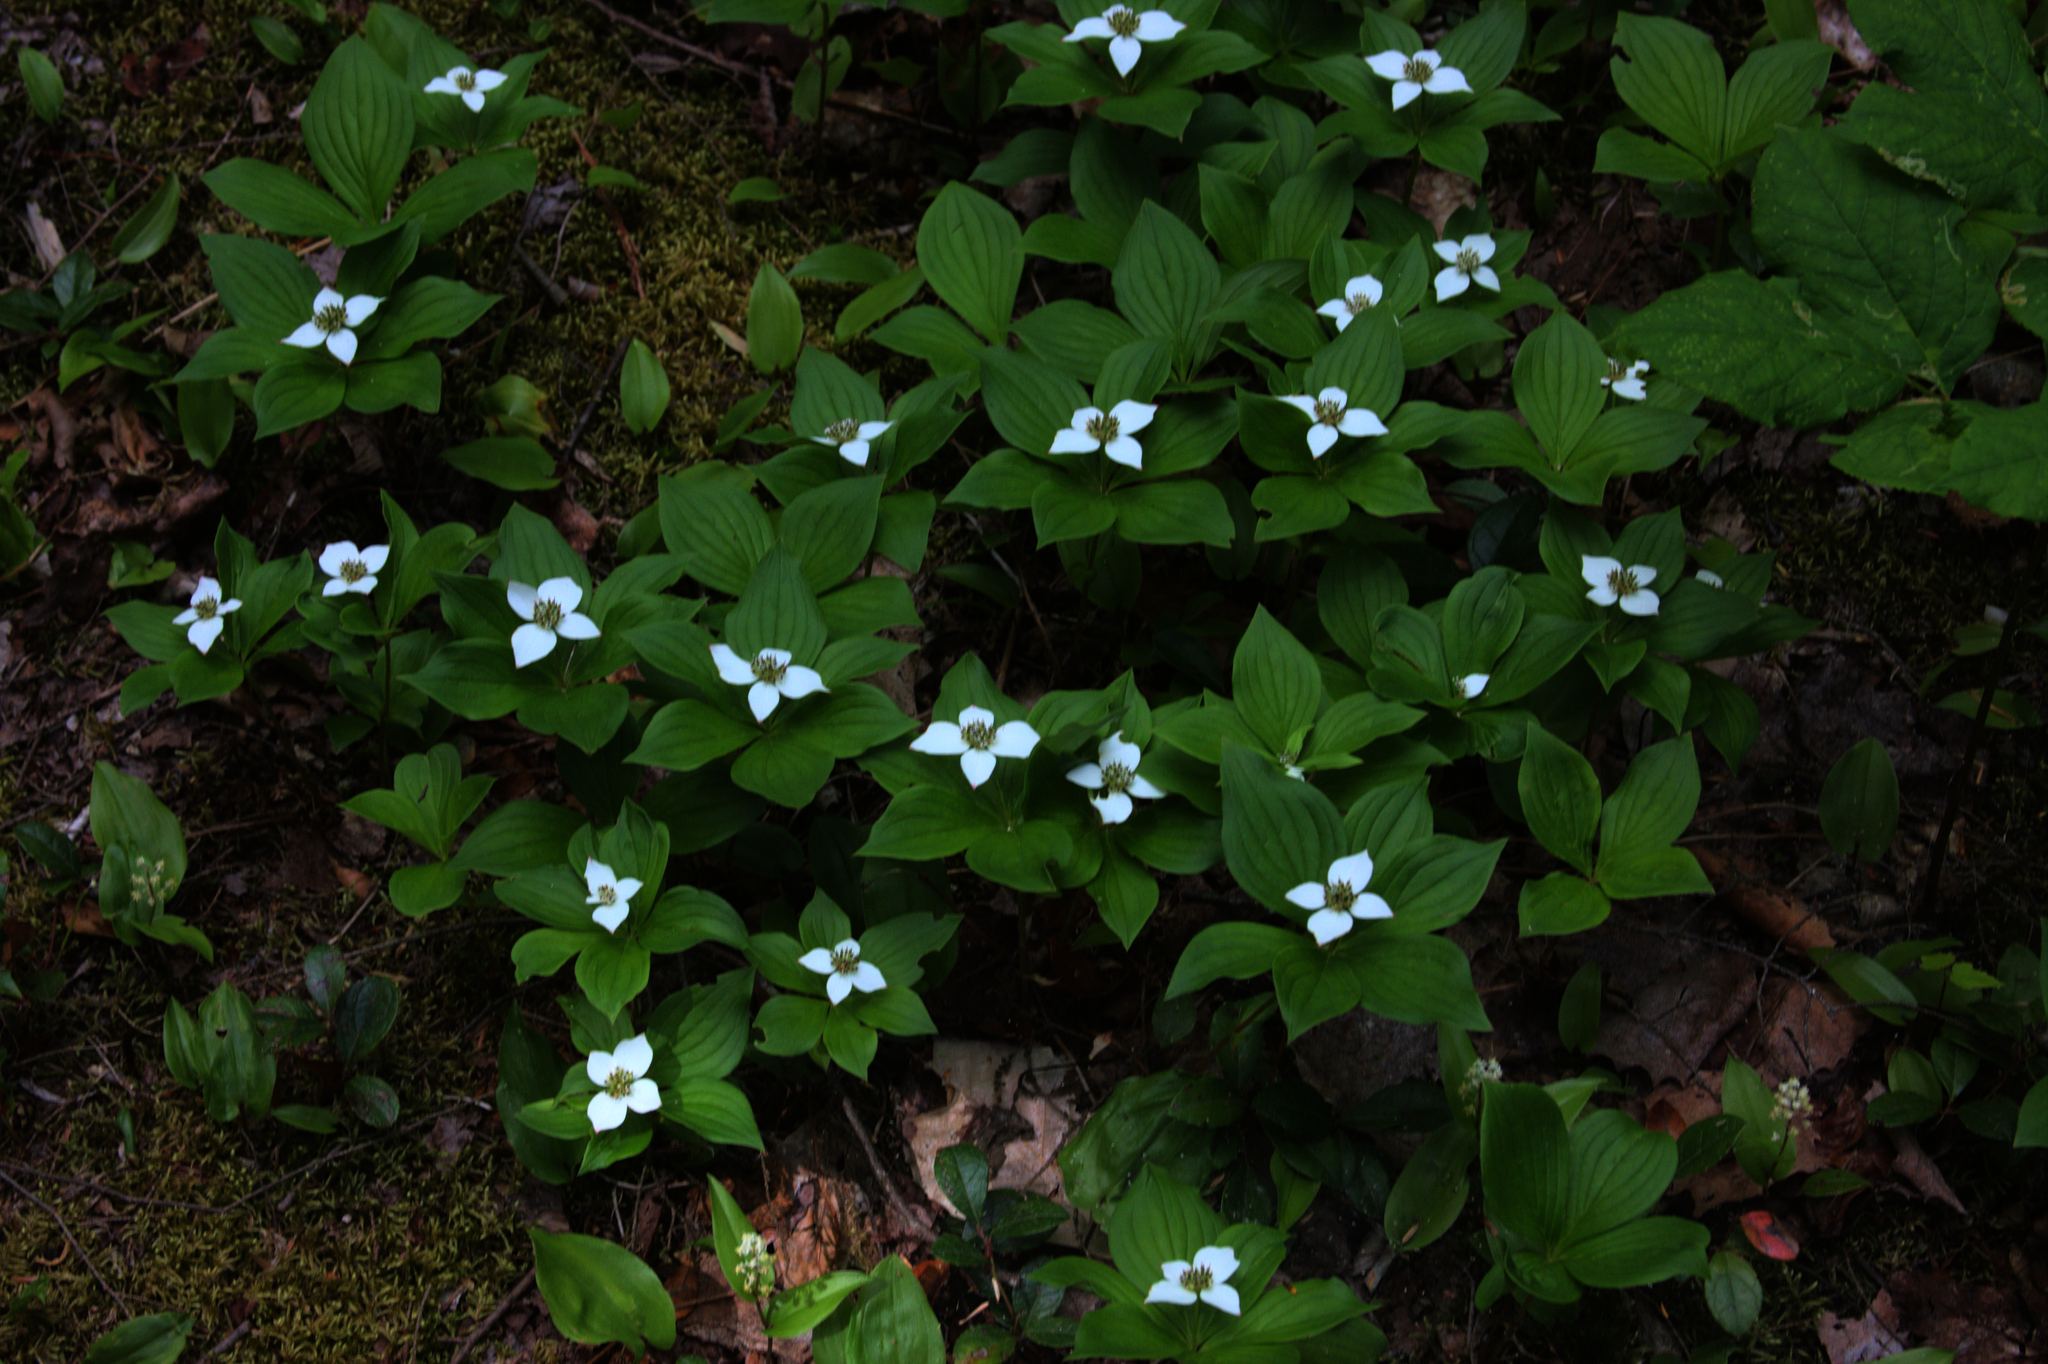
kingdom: Plantae
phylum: Tracheophyta
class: Magnoliopsida
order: Cornales
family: Cornaceae
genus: Cornus
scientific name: Cornus canadensis
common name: Creeping dogwood
